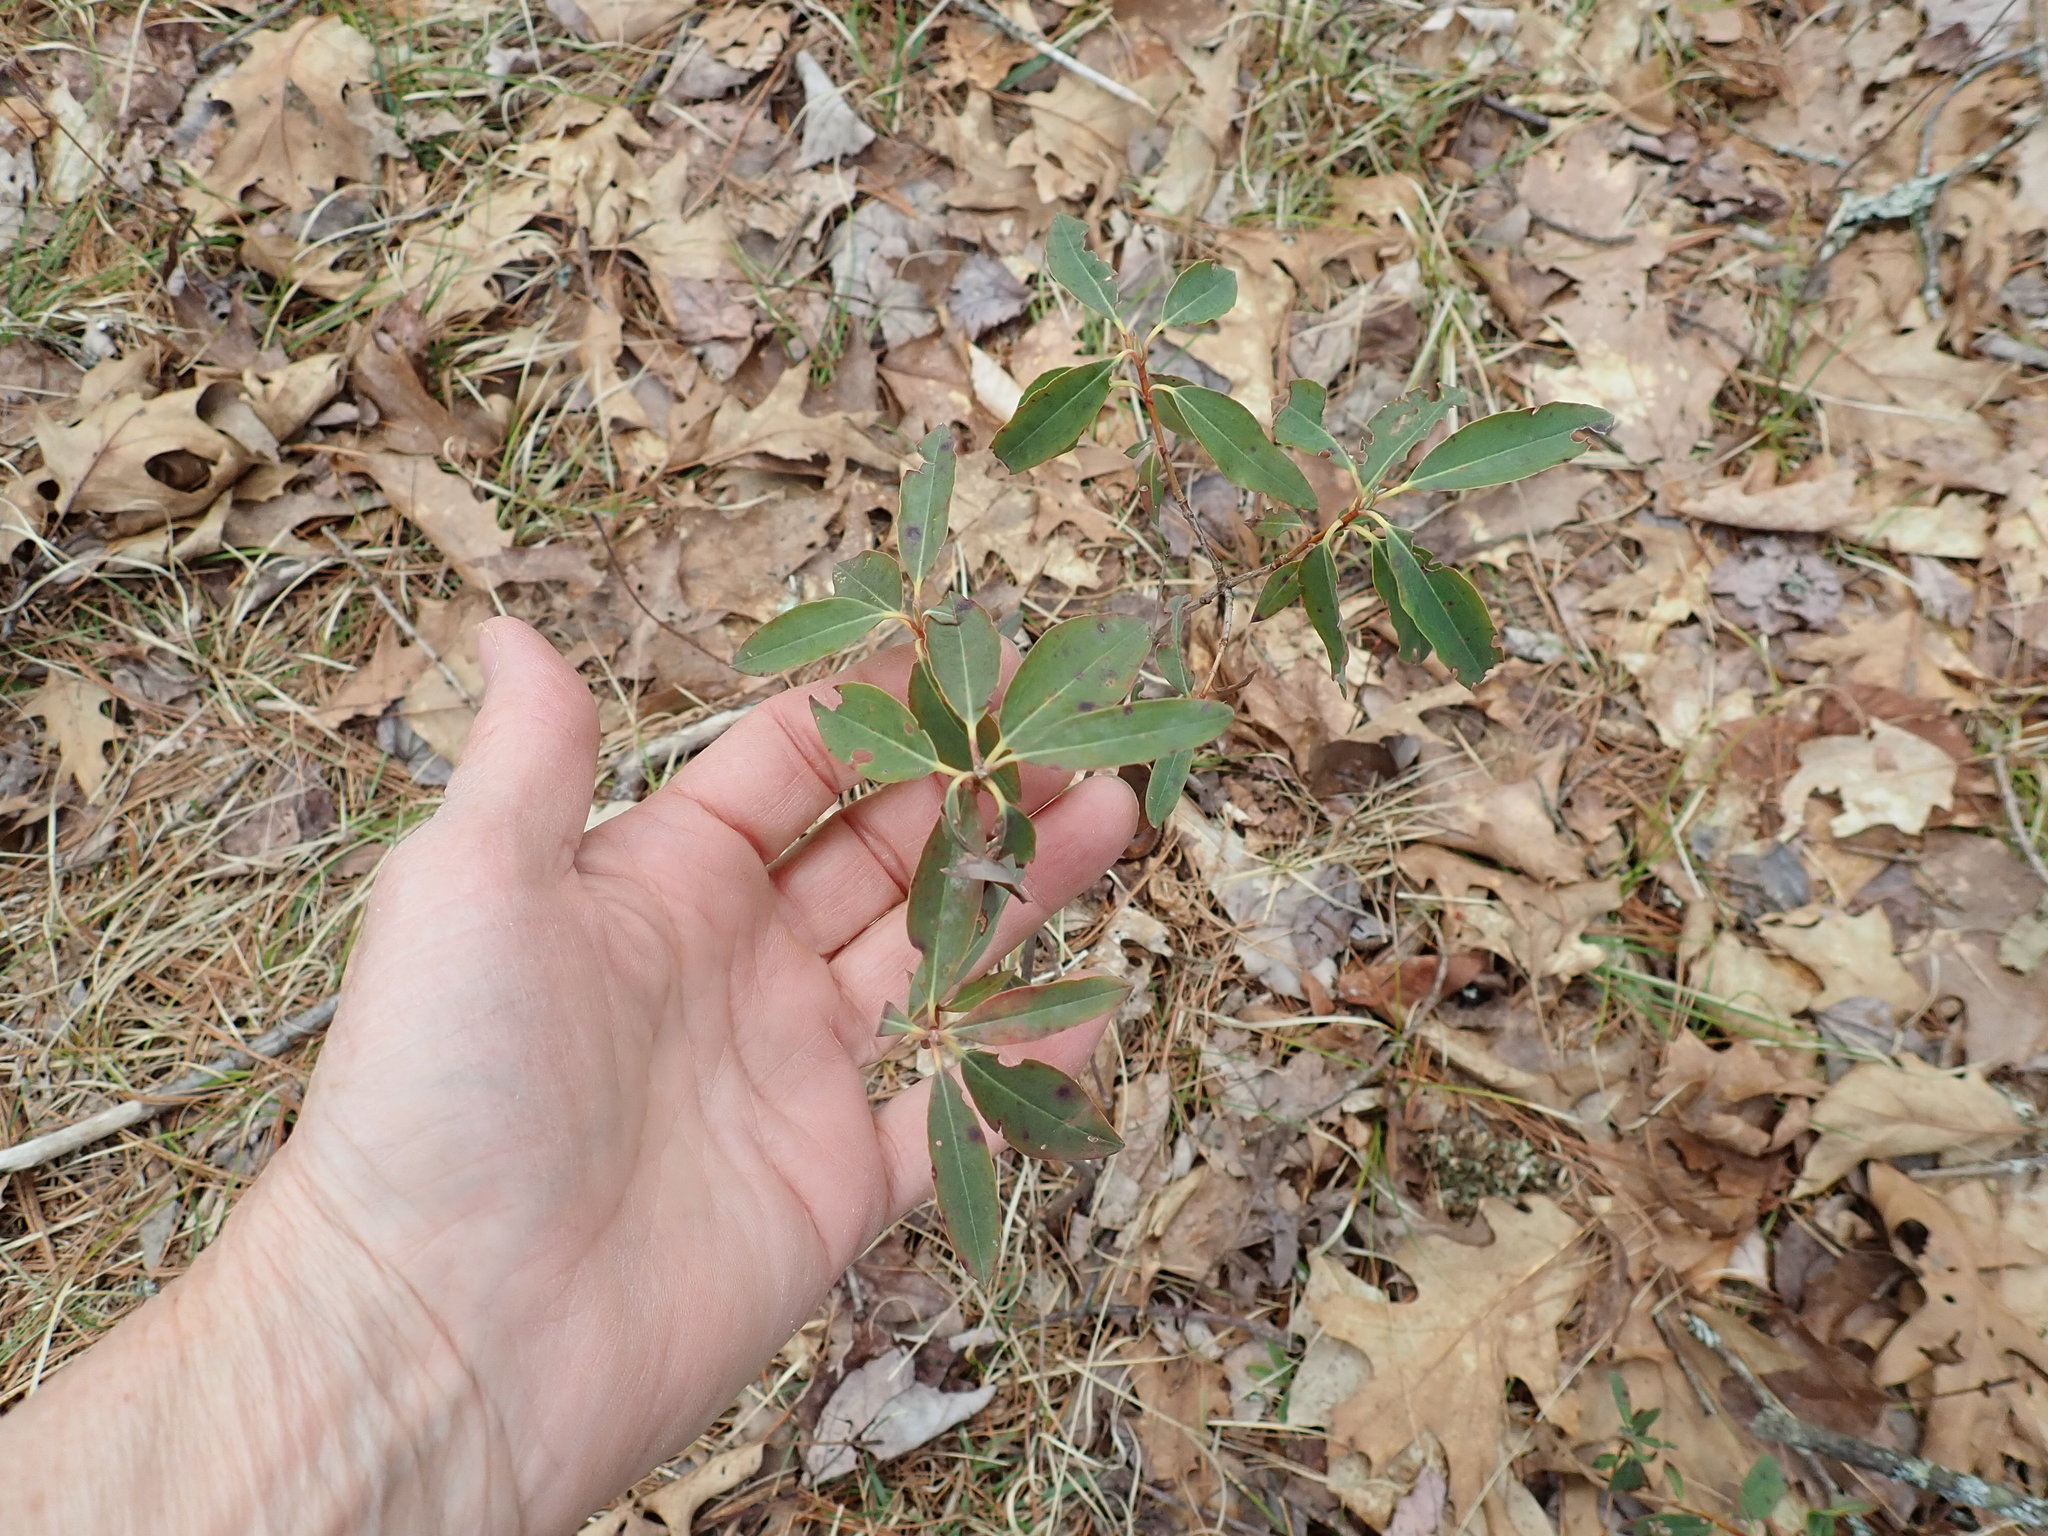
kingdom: Plantae
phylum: Tracheophyta
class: Magnoliopsida
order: Ericales
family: Ericaceae
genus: Kalmia
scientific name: Kalmia angustifolia
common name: Sheep-laurel
